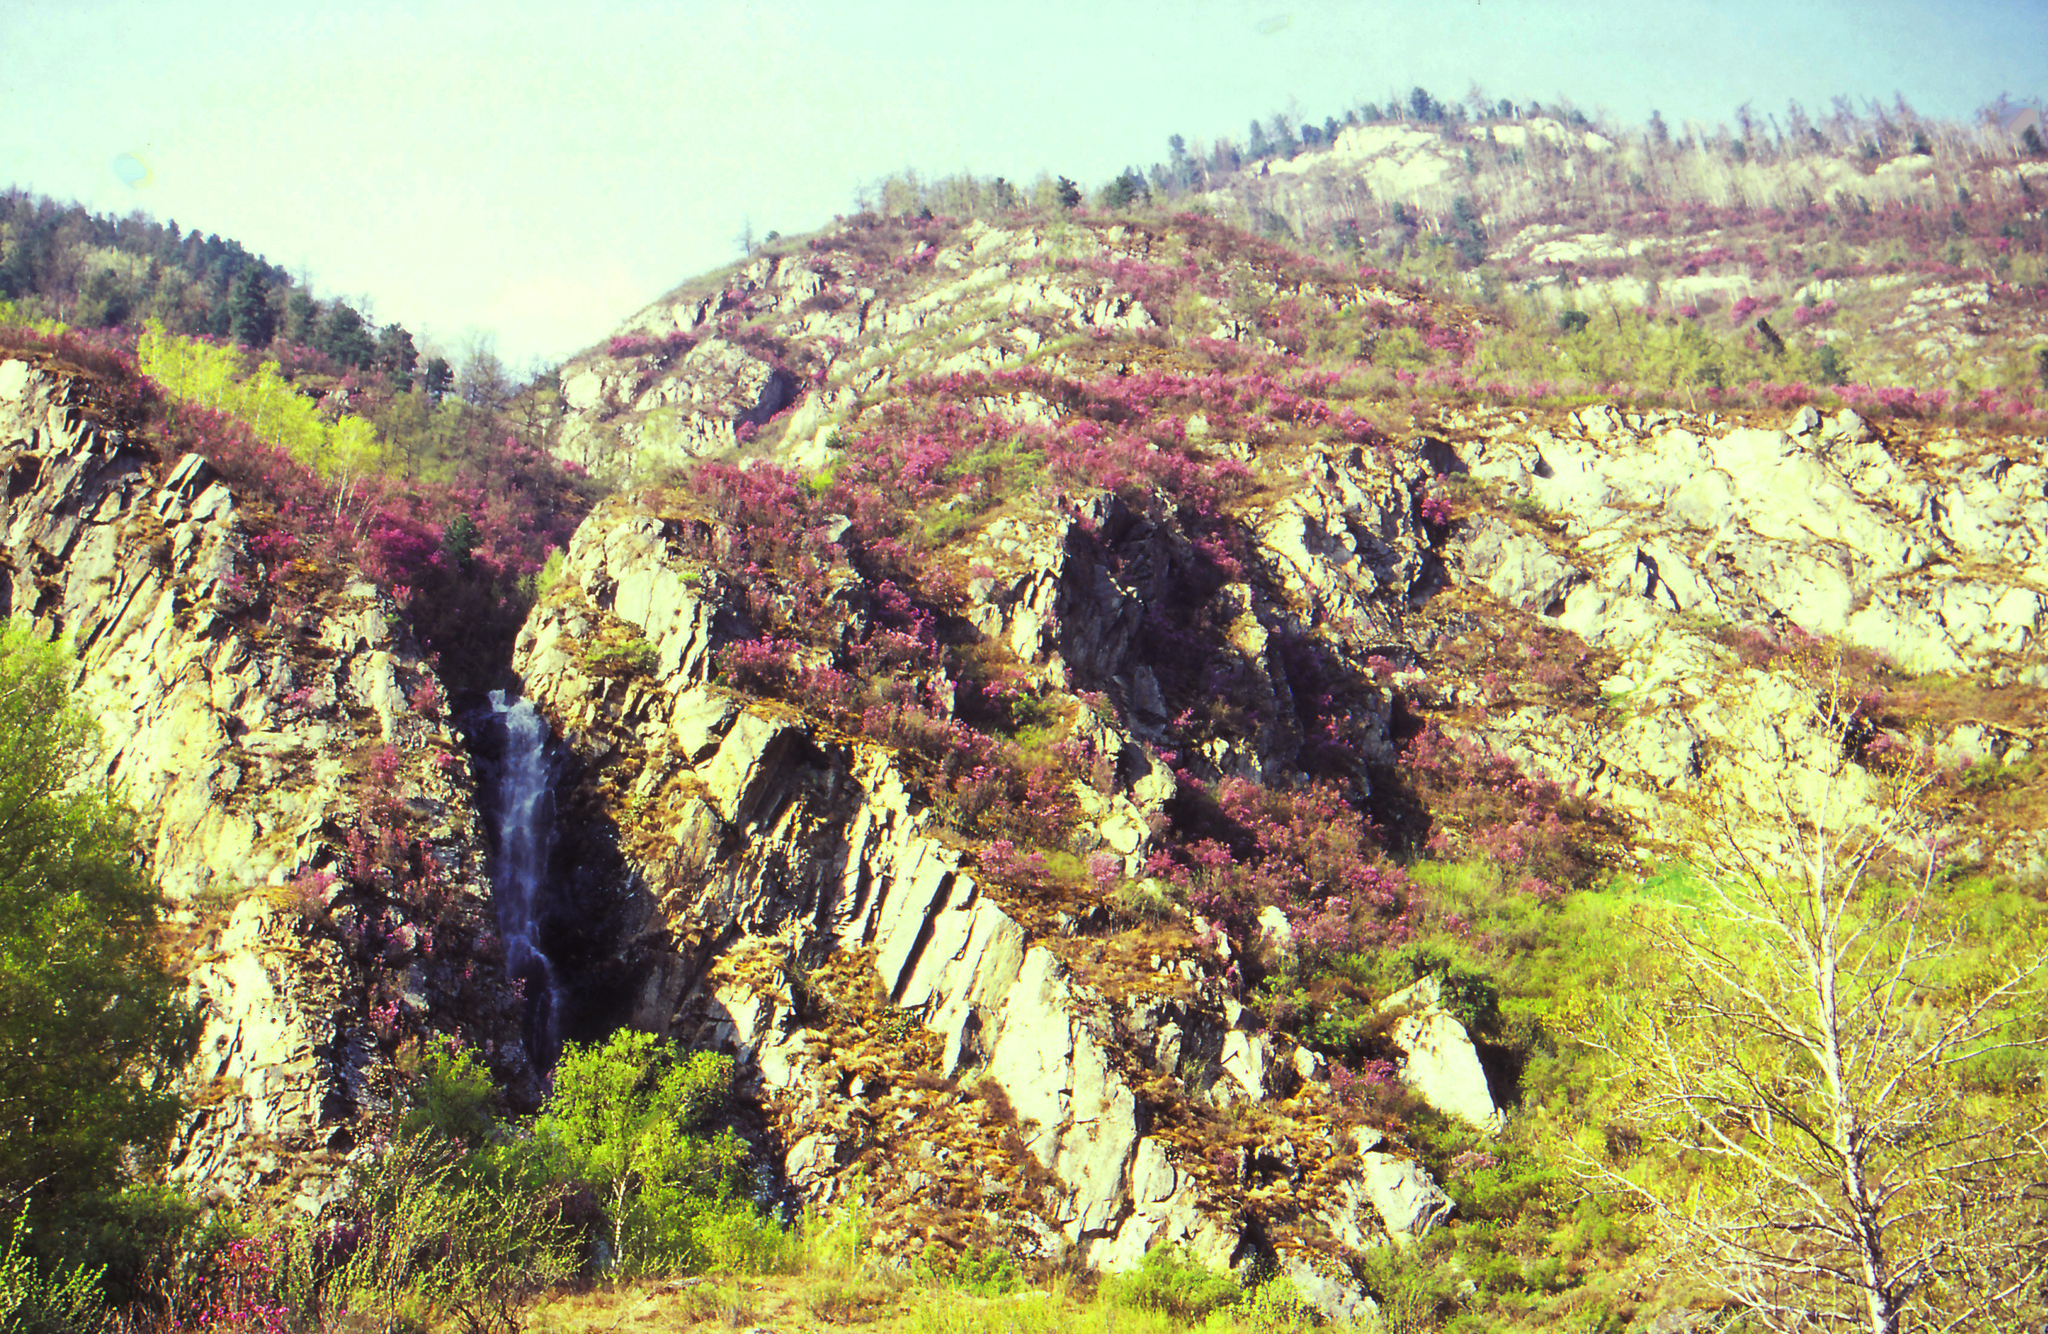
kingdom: Plantae
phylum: Tracheophyta
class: Magnoliopsida
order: Ericales
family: Ericaceae
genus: Rhododendron
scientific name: Rhododendron dauricum
